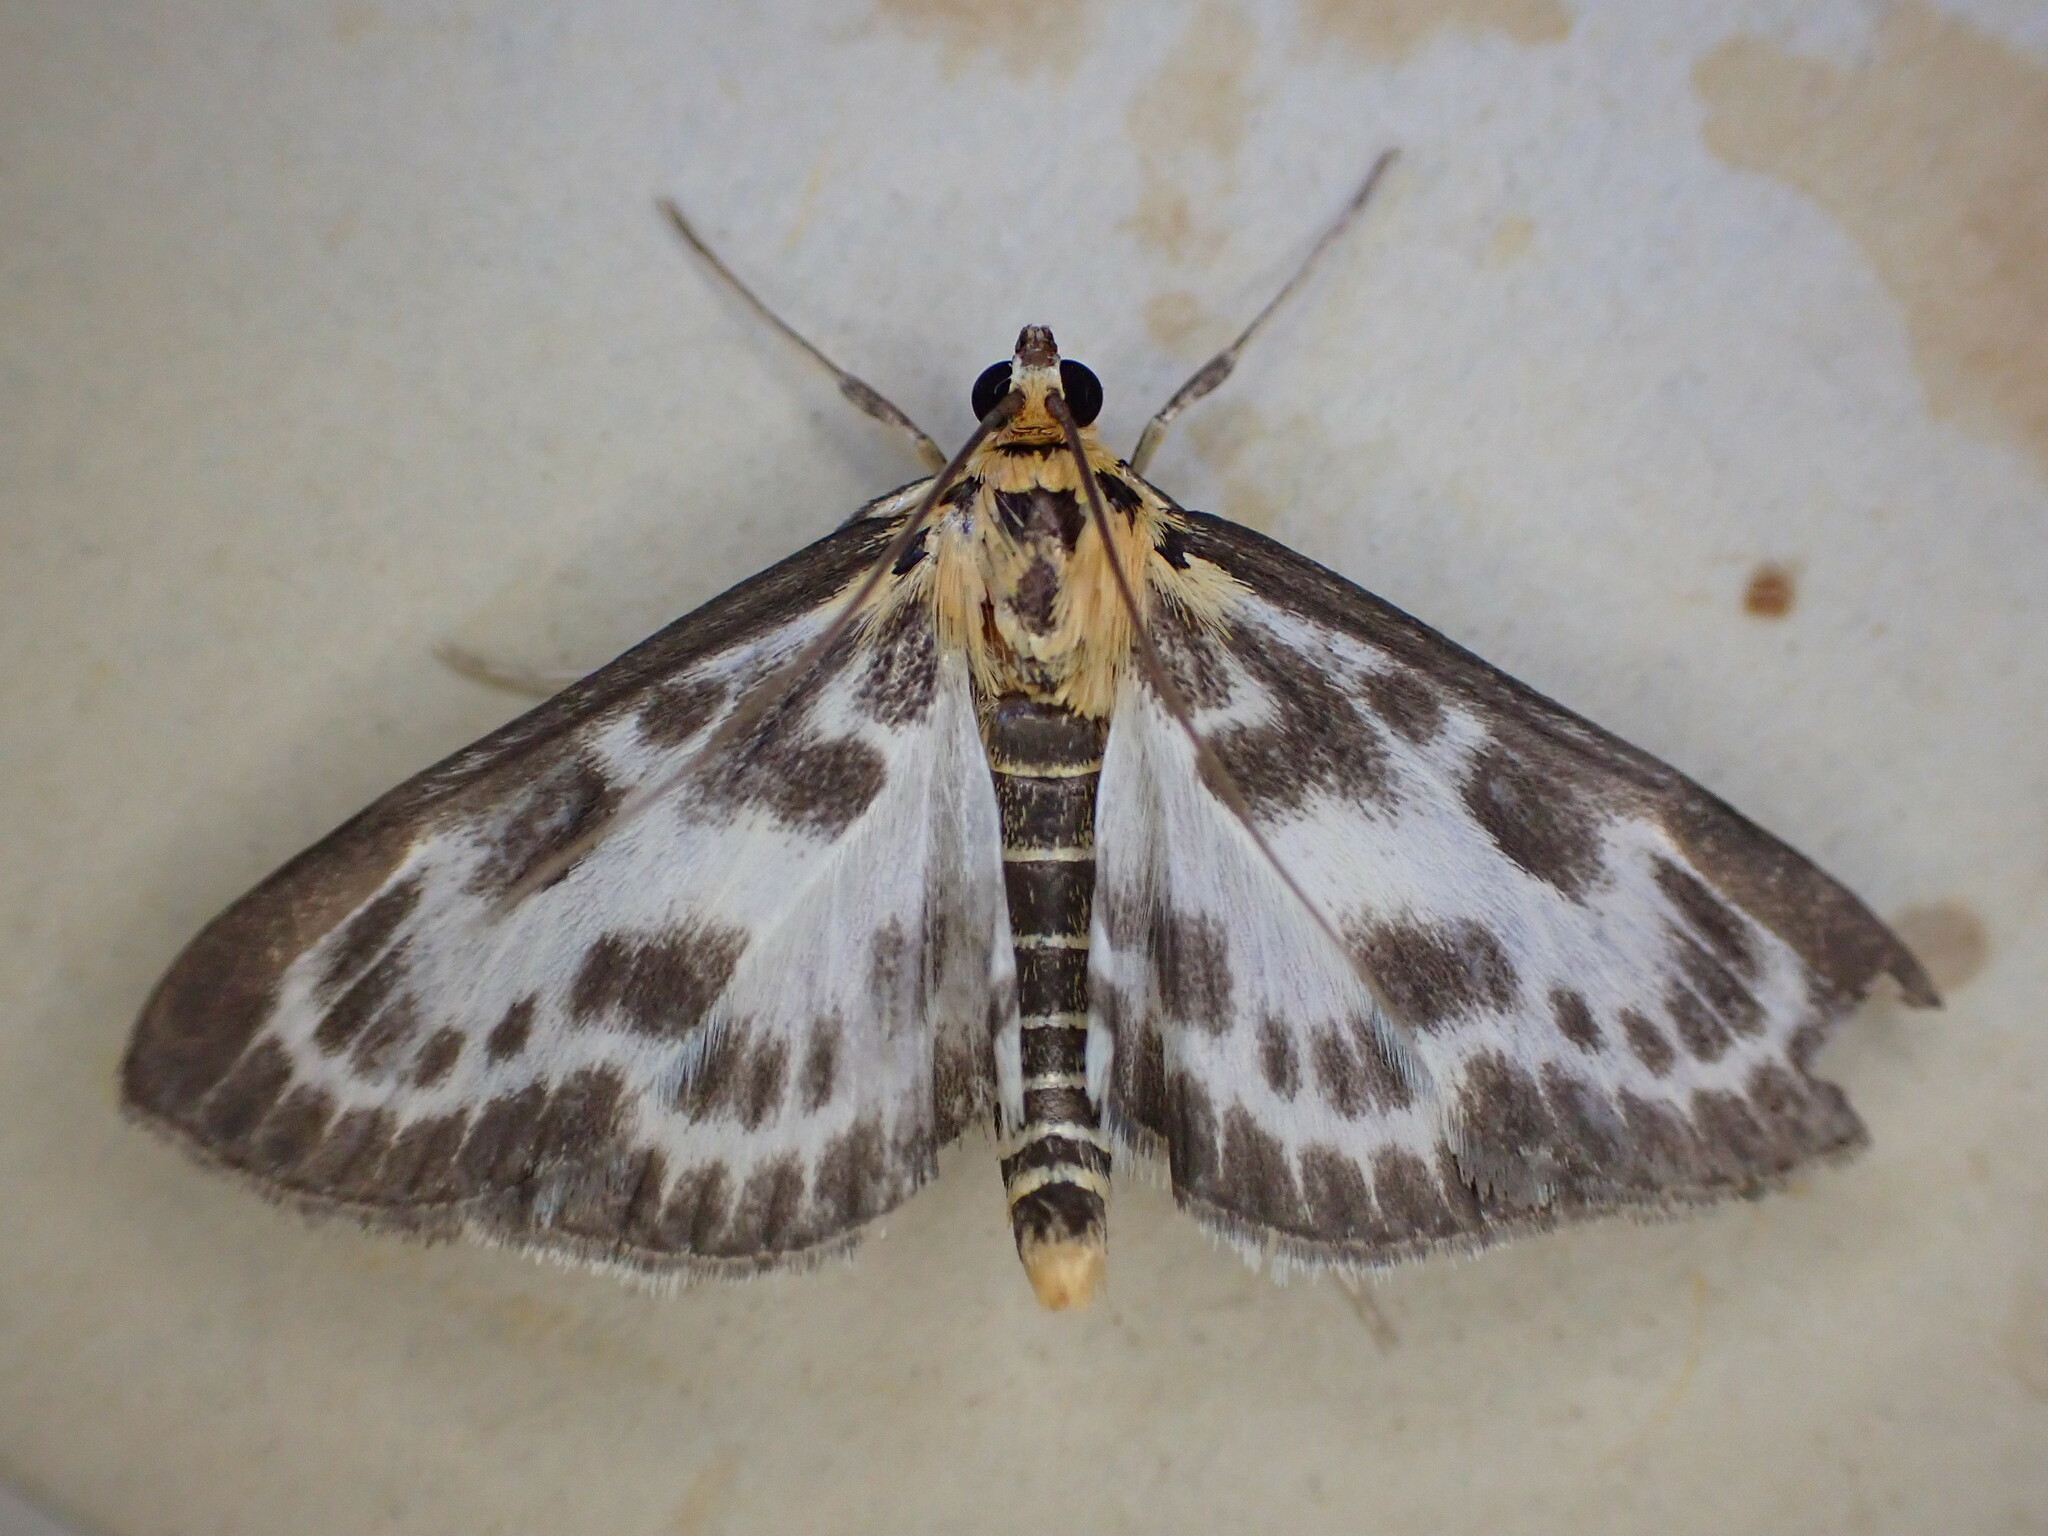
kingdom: Animalia
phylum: Arthropoda
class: Insecta
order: Lepidoptera
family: Crambidae
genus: Anania
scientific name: Anania hortulata
